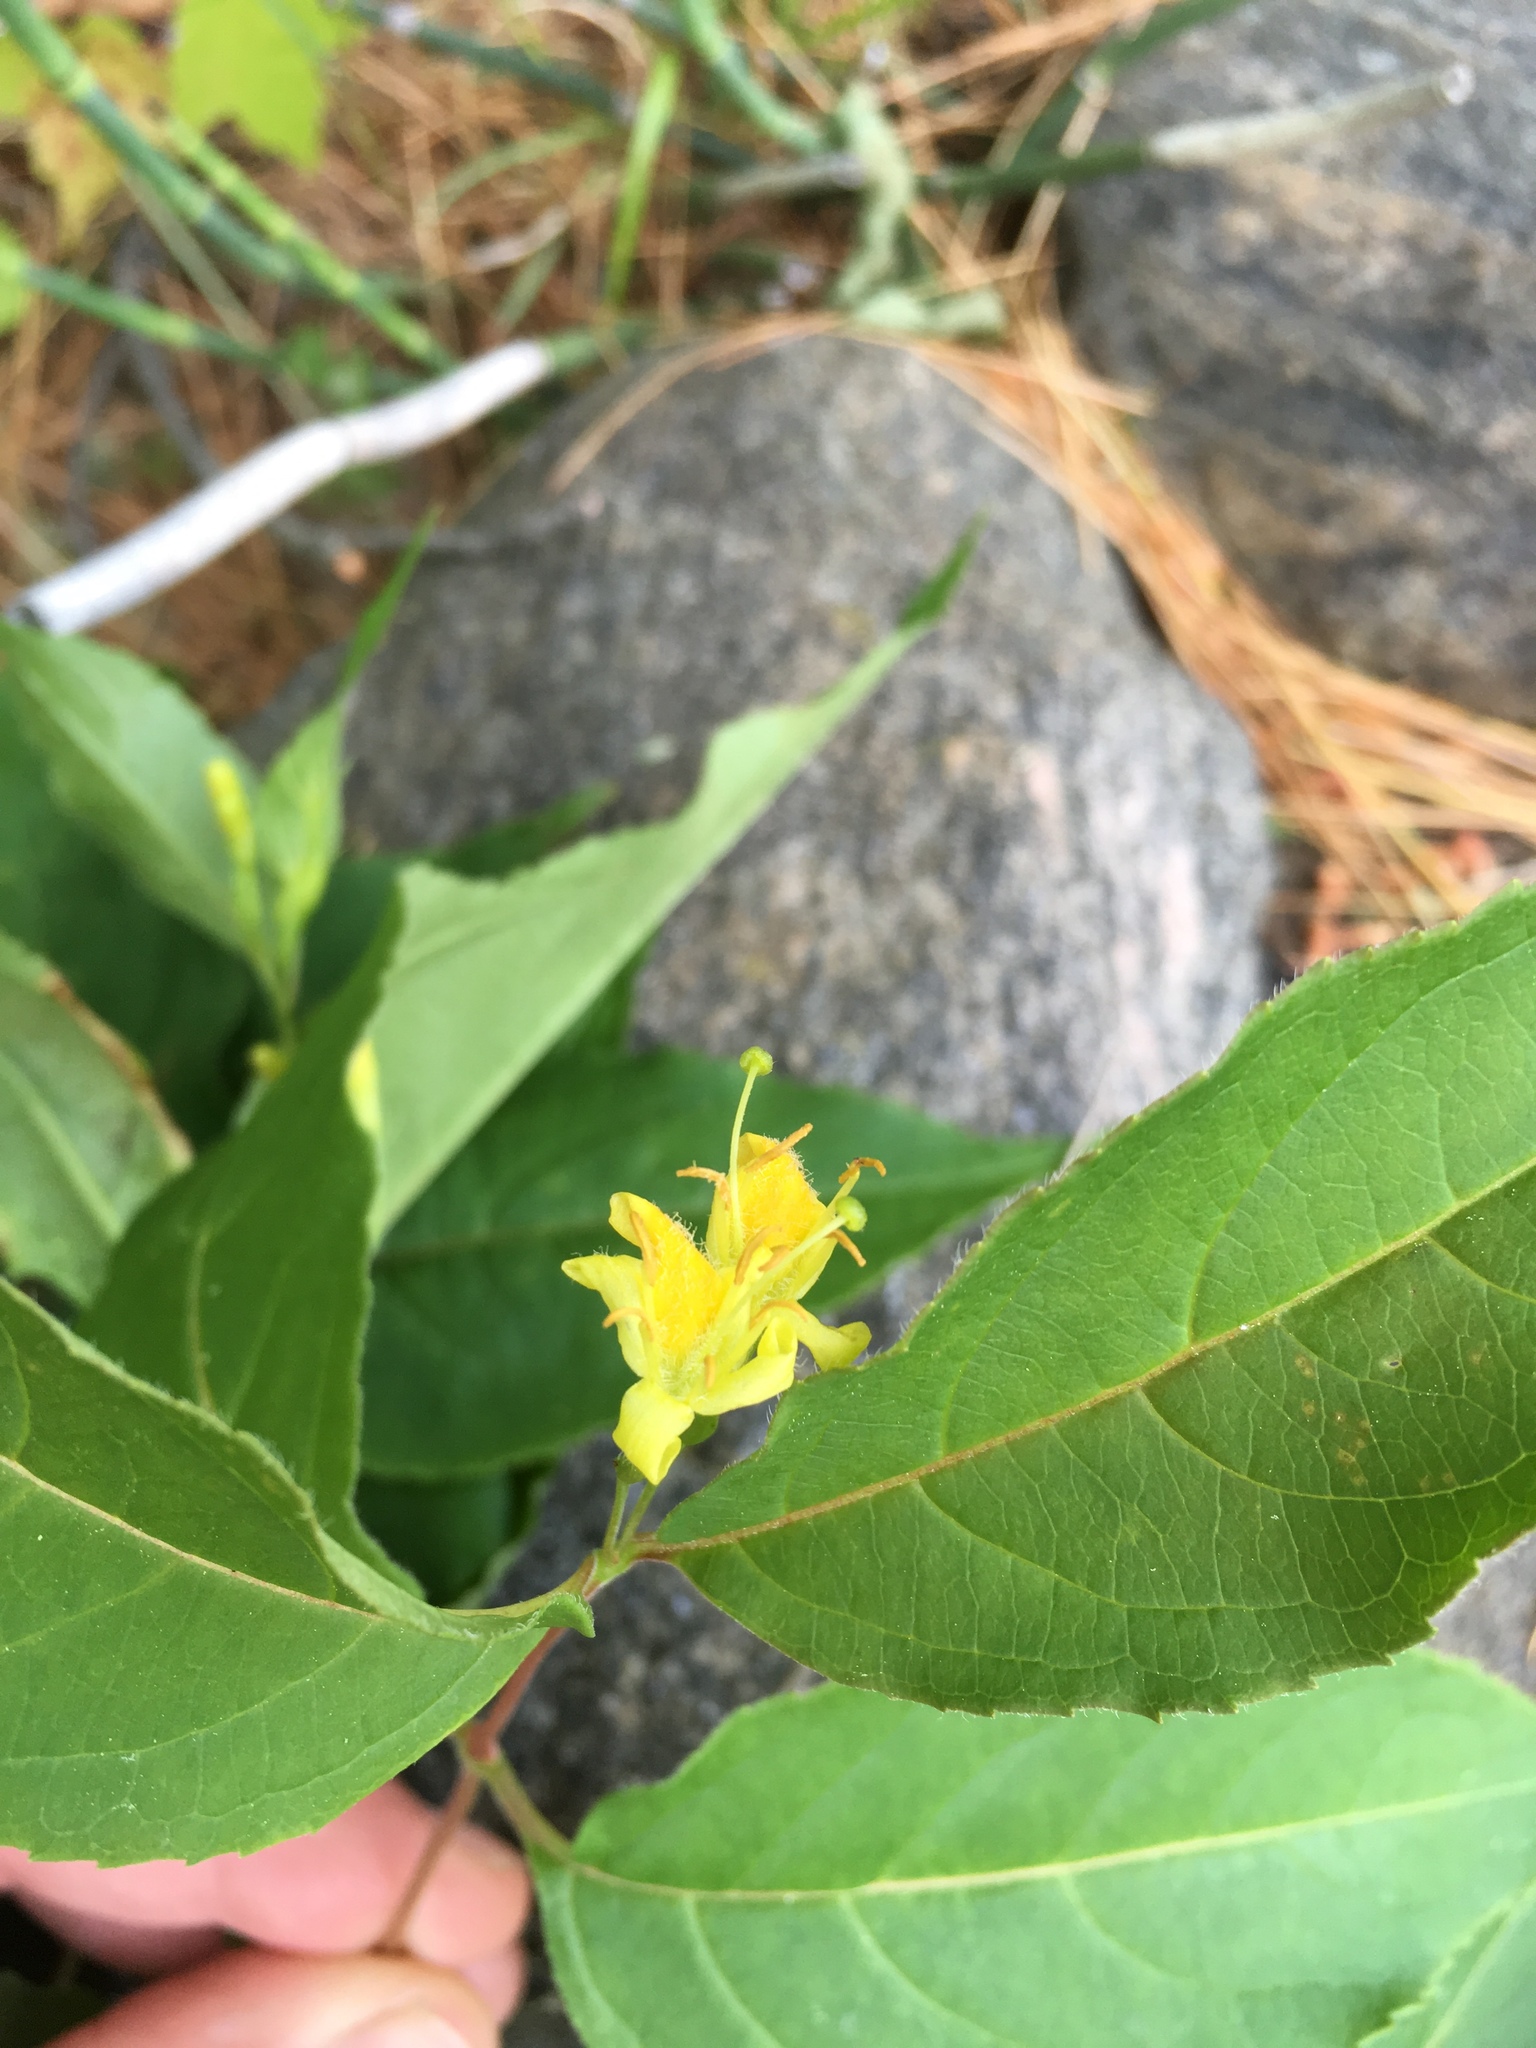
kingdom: Plantae
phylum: Tracheophyta
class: Magnoliopsida
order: Dipsacales
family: Caprifoliaceae
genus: Diervilla
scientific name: Diervilla lonicera
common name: Bush-honeysuckle
